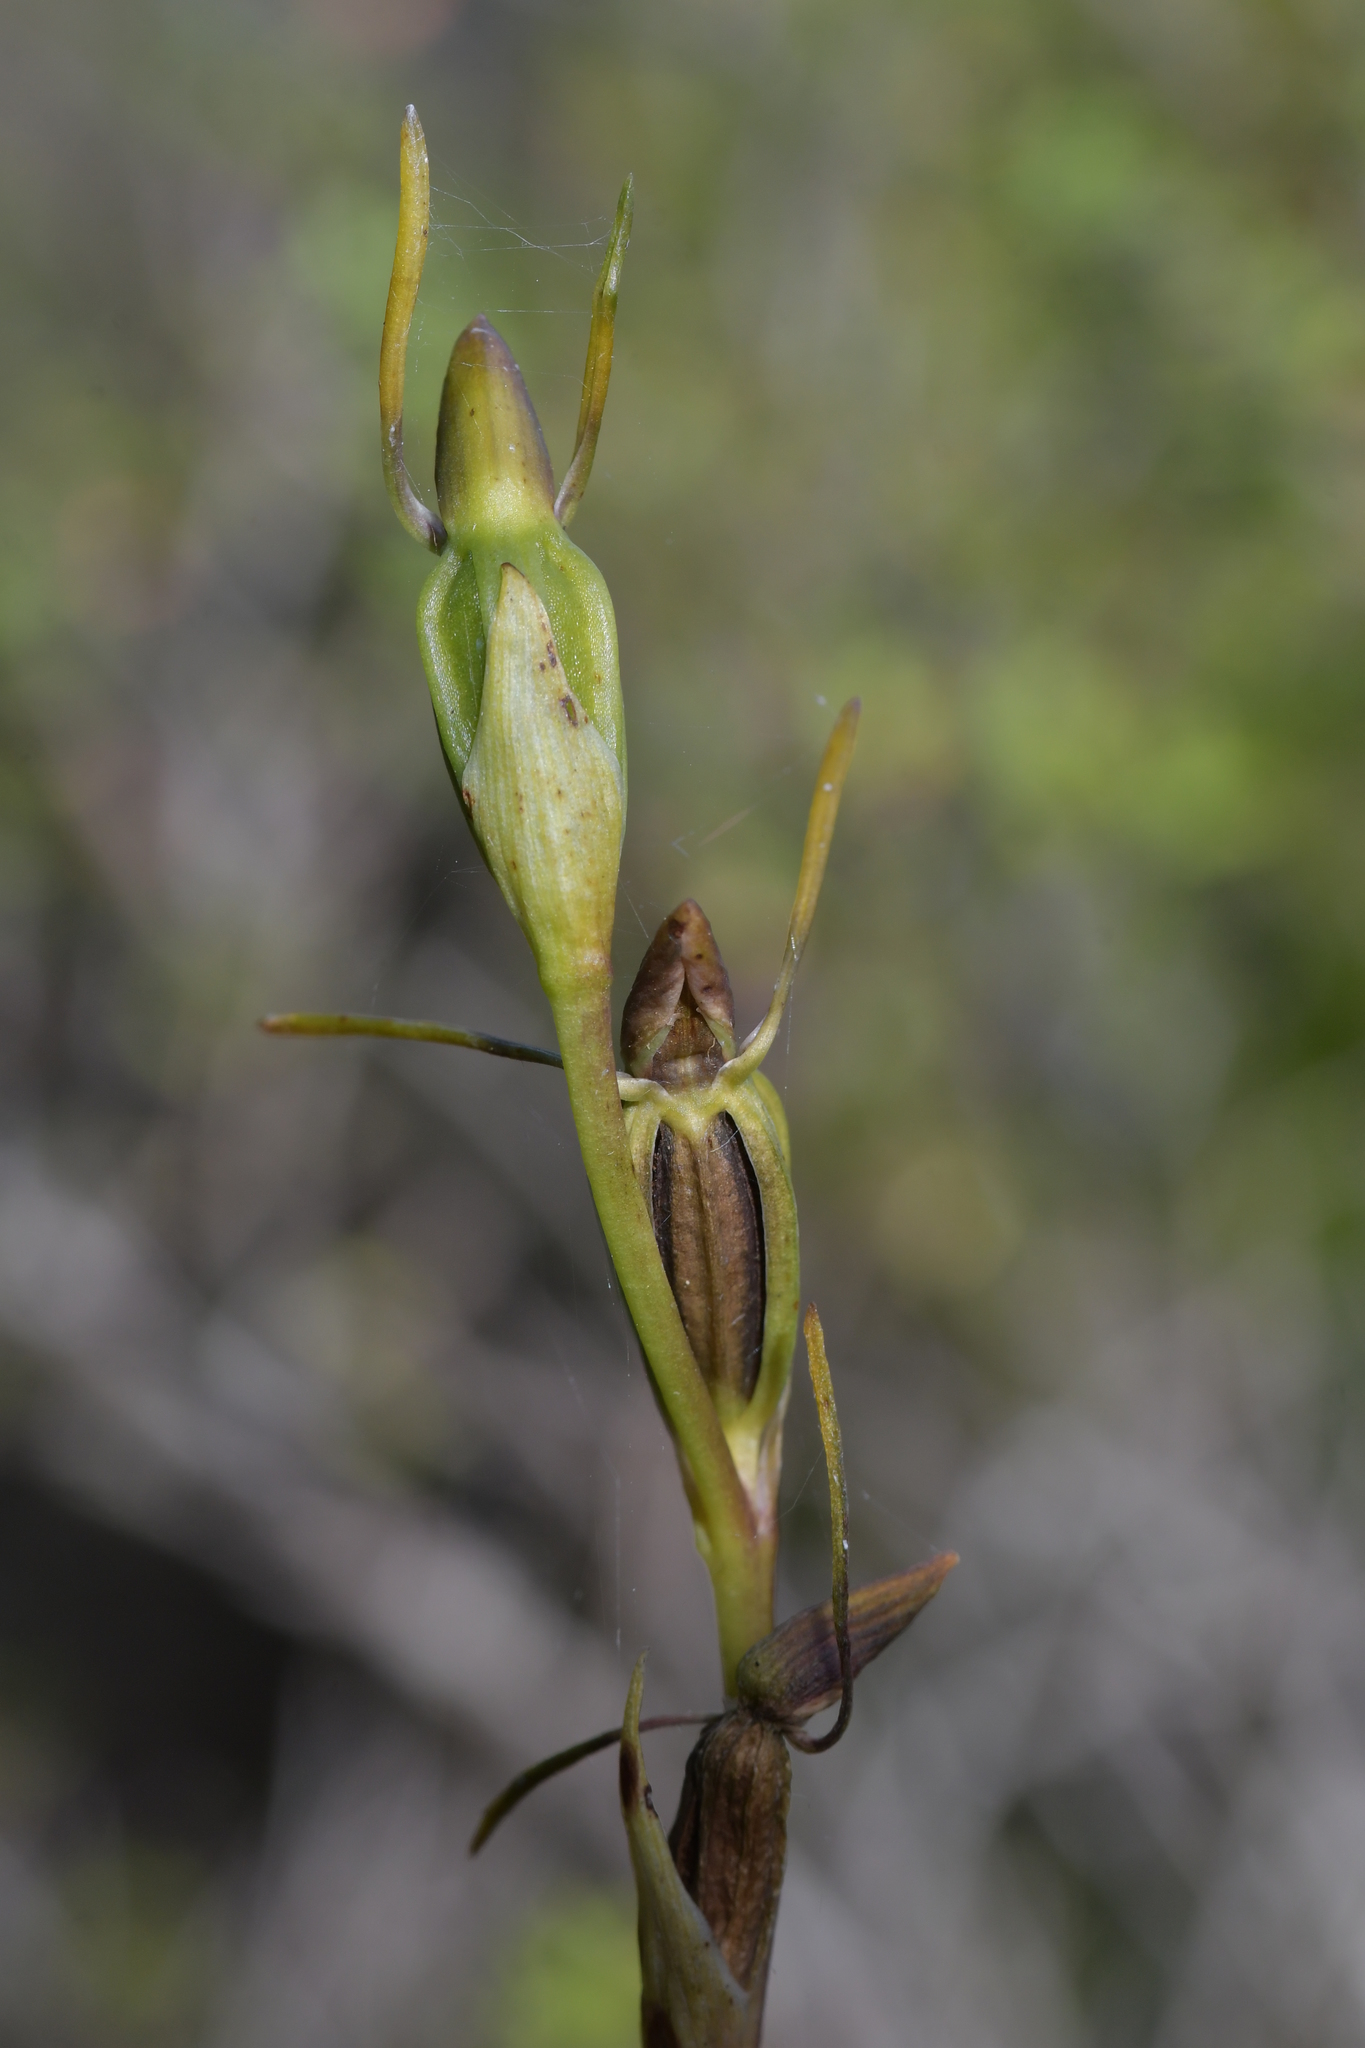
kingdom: Plantae
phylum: Tracheophyta
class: Liliopsida
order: Asparagales
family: Orchidaceae
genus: Orthoceras
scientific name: Orthoceras novae-zeelandiae
